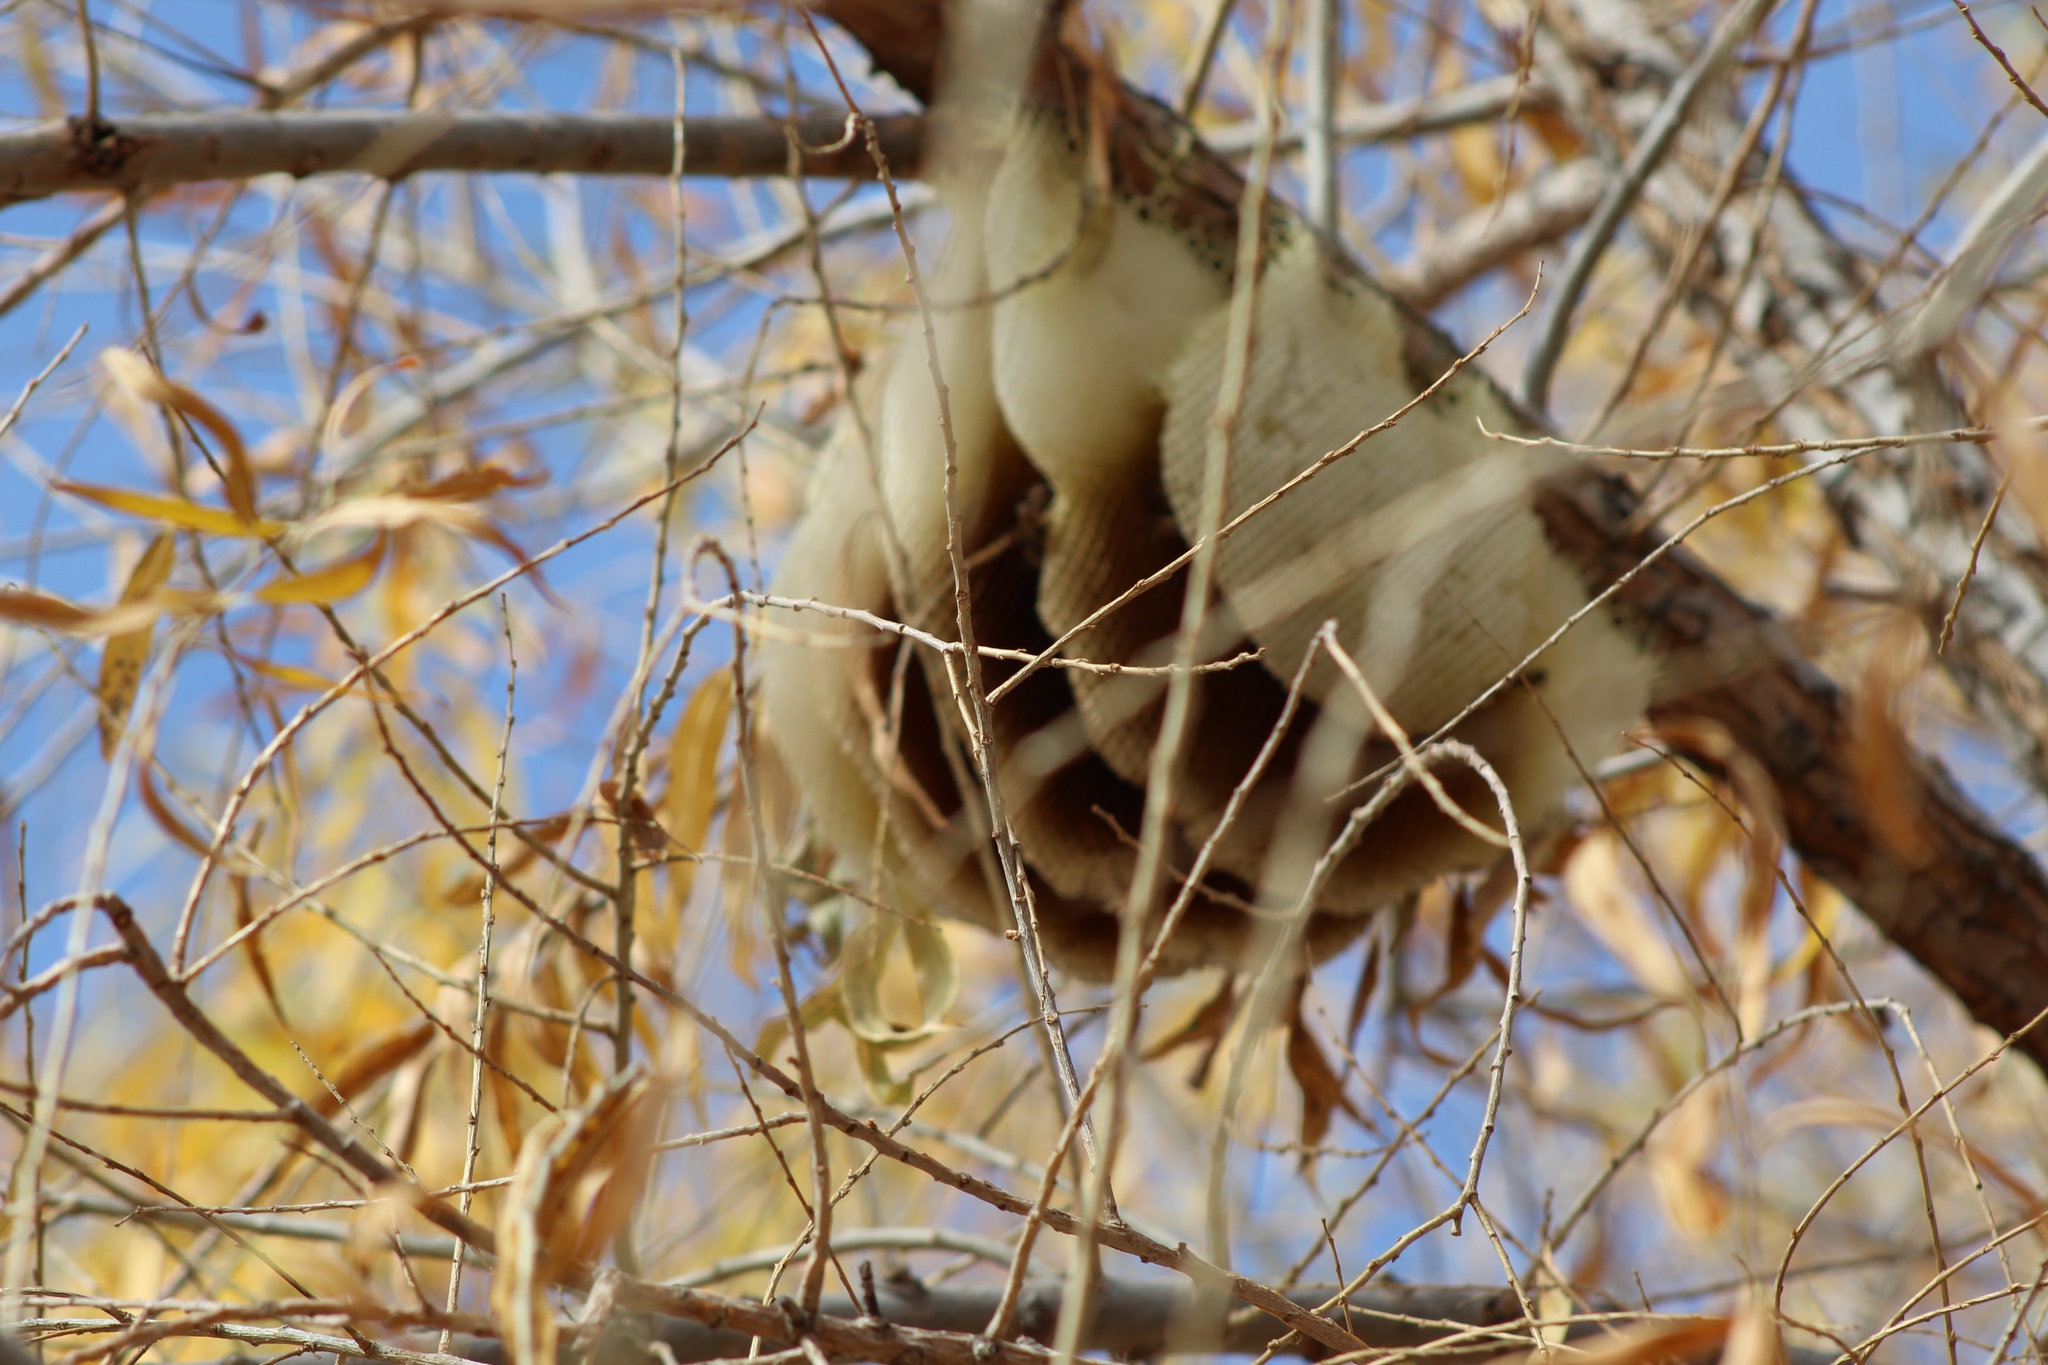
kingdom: Animalia
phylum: Arthropoda
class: Insecta
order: Hymenoptera
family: Apidae
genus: Apis
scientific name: Apis mellifera
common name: Honey bee
